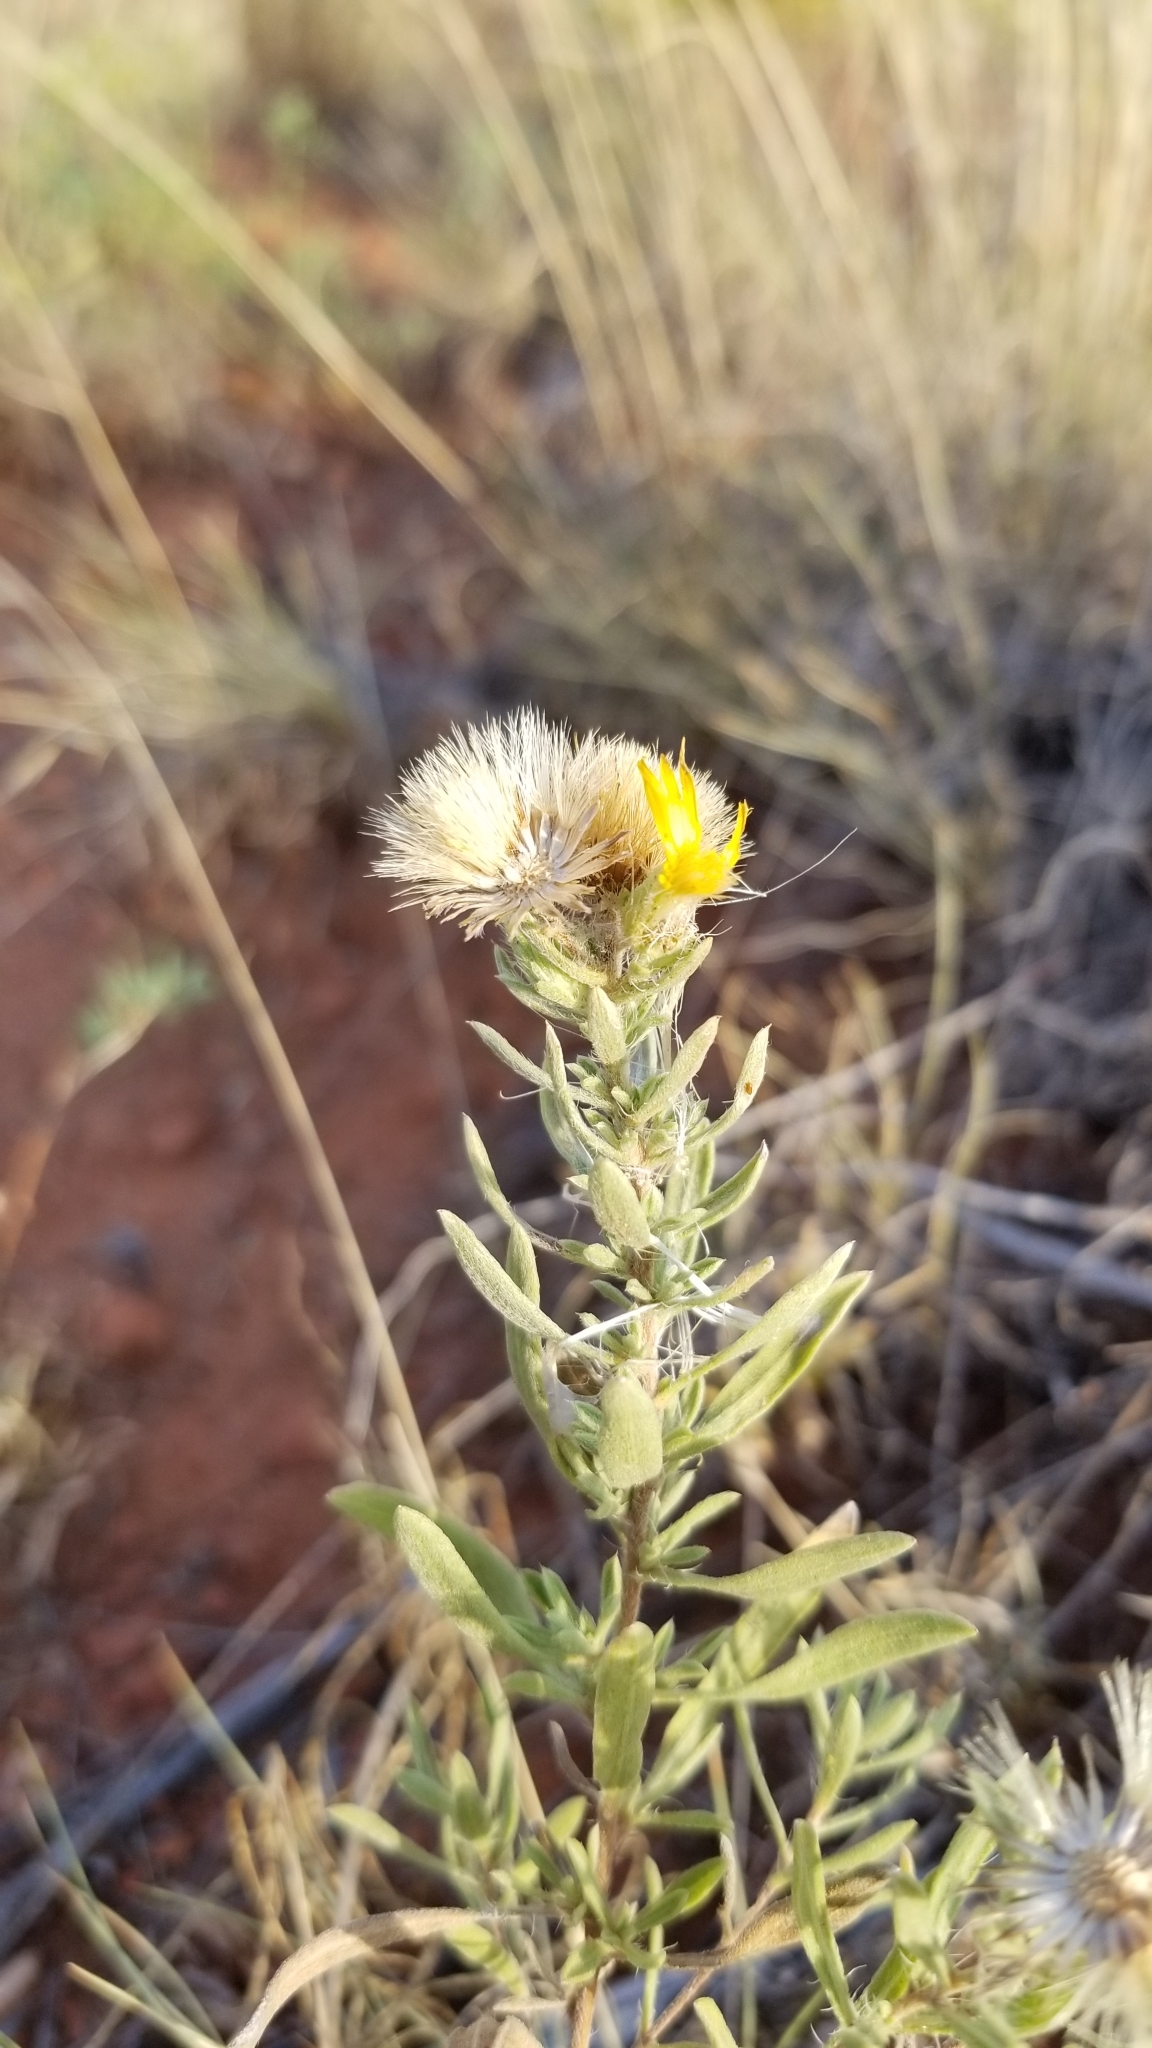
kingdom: Plantae
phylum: Tracheophyta
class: Magnoliopsida
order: Asterales
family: Asteraceae
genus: Heterotheca
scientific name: Heterotheca canescens
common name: Hoary golden-aster
